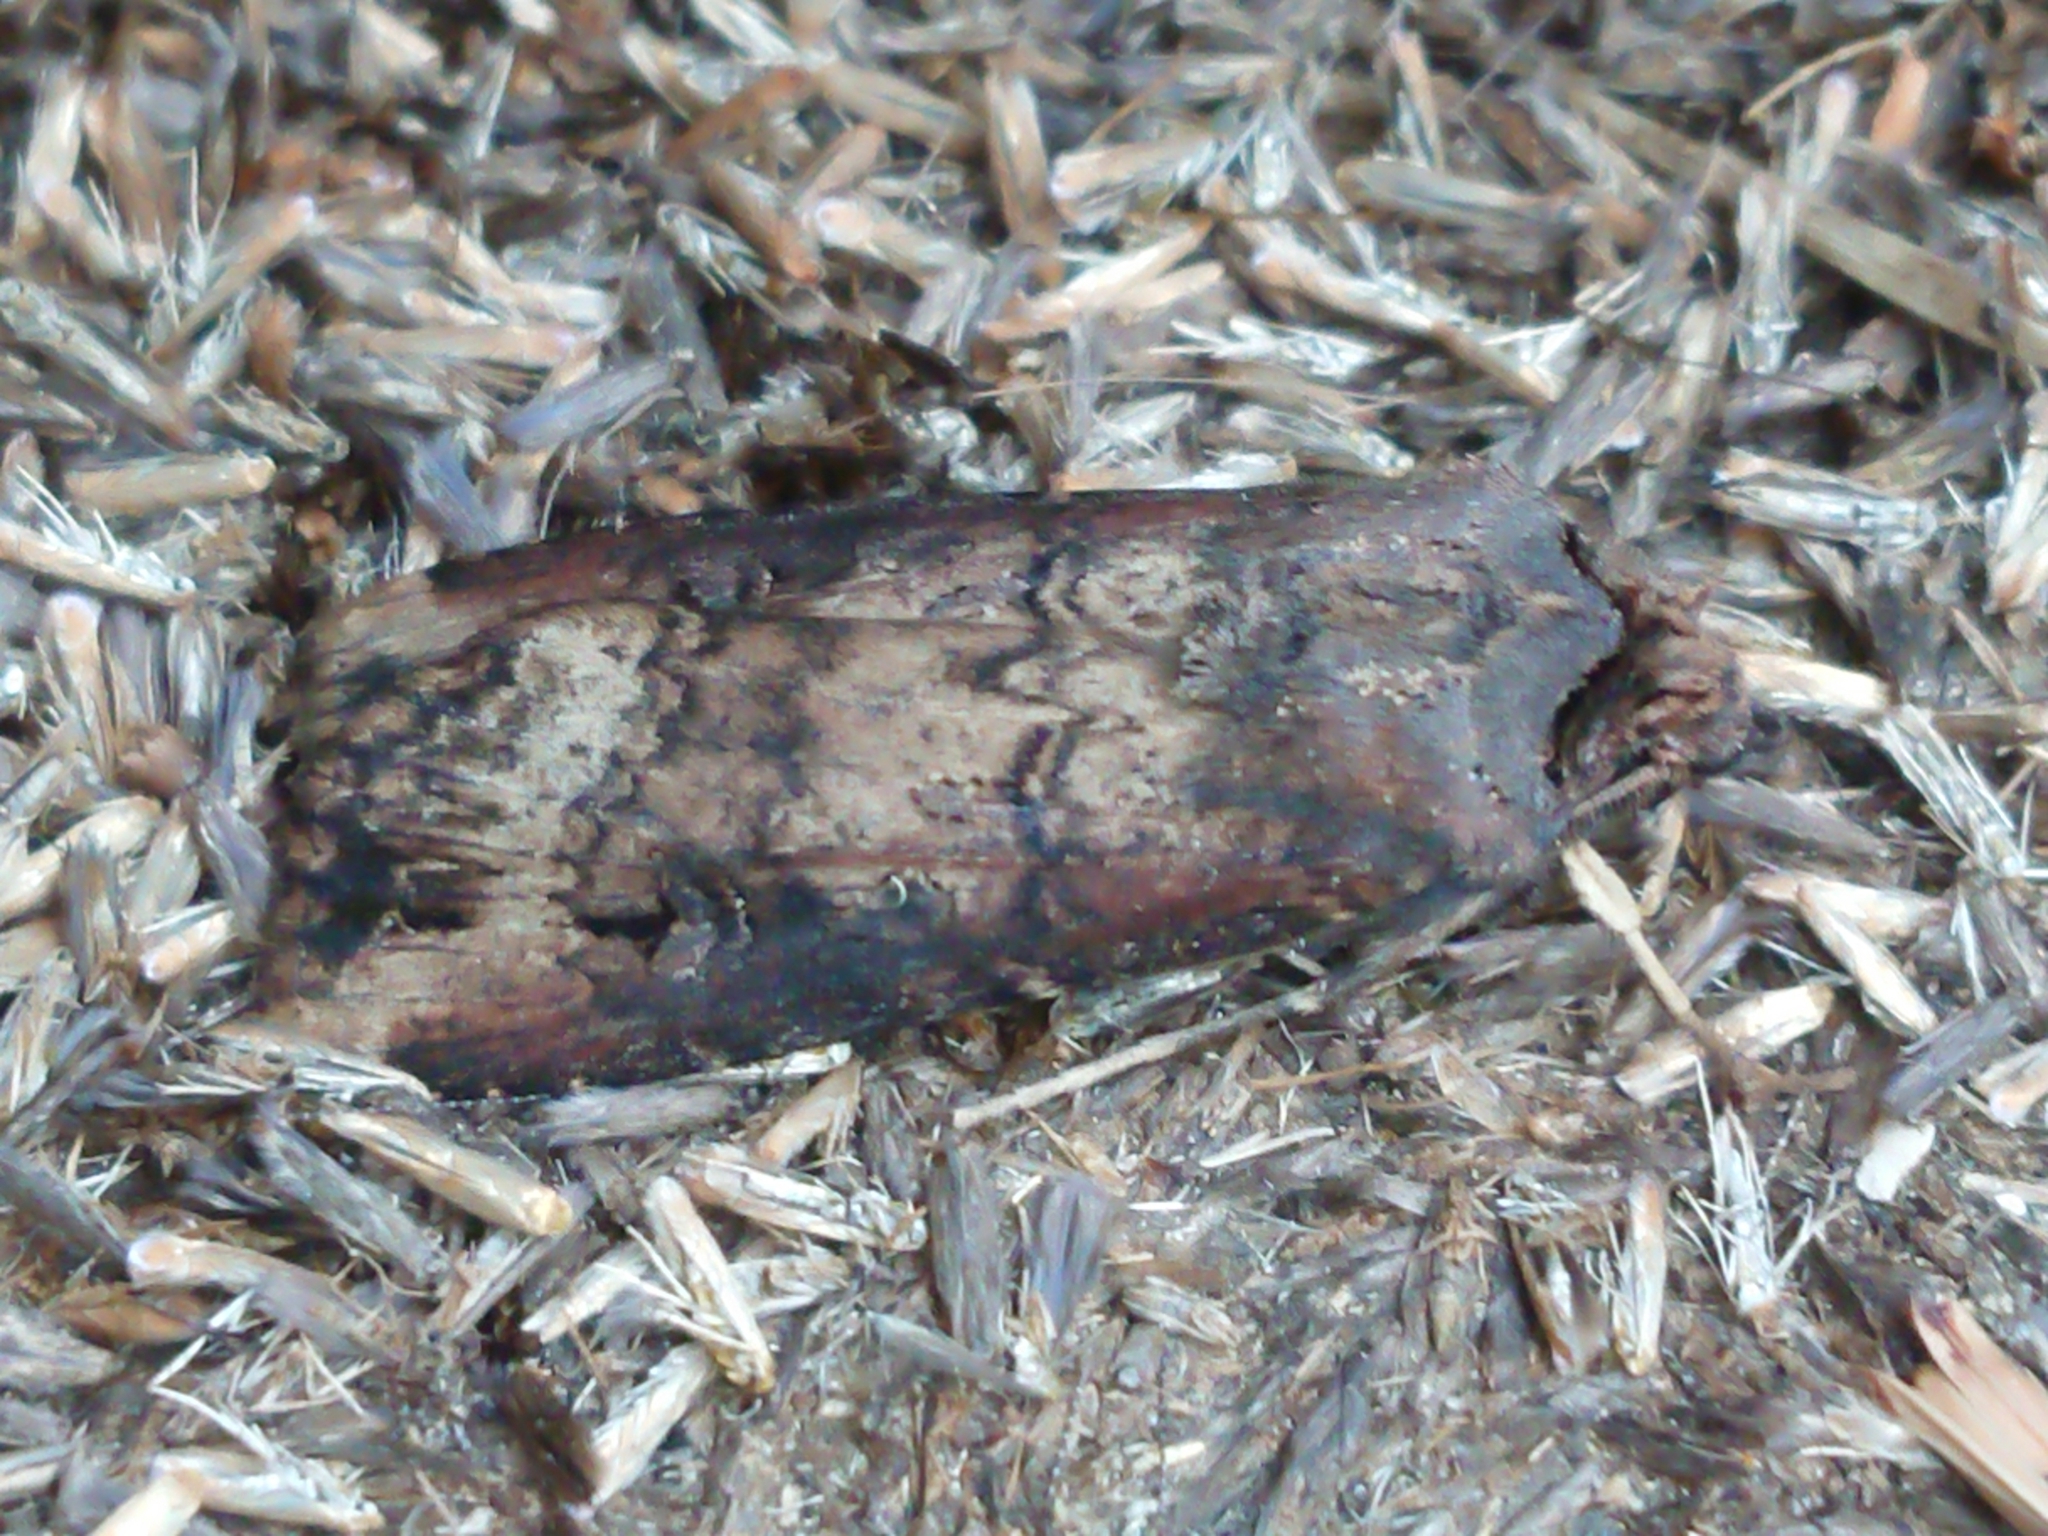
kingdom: Animalia
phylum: Arthropoda
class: Insecta
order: Lepidoptera
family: Noctuidae
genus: Agrotis
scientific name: Agrotis ipsilon
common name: Dark sword-grass
